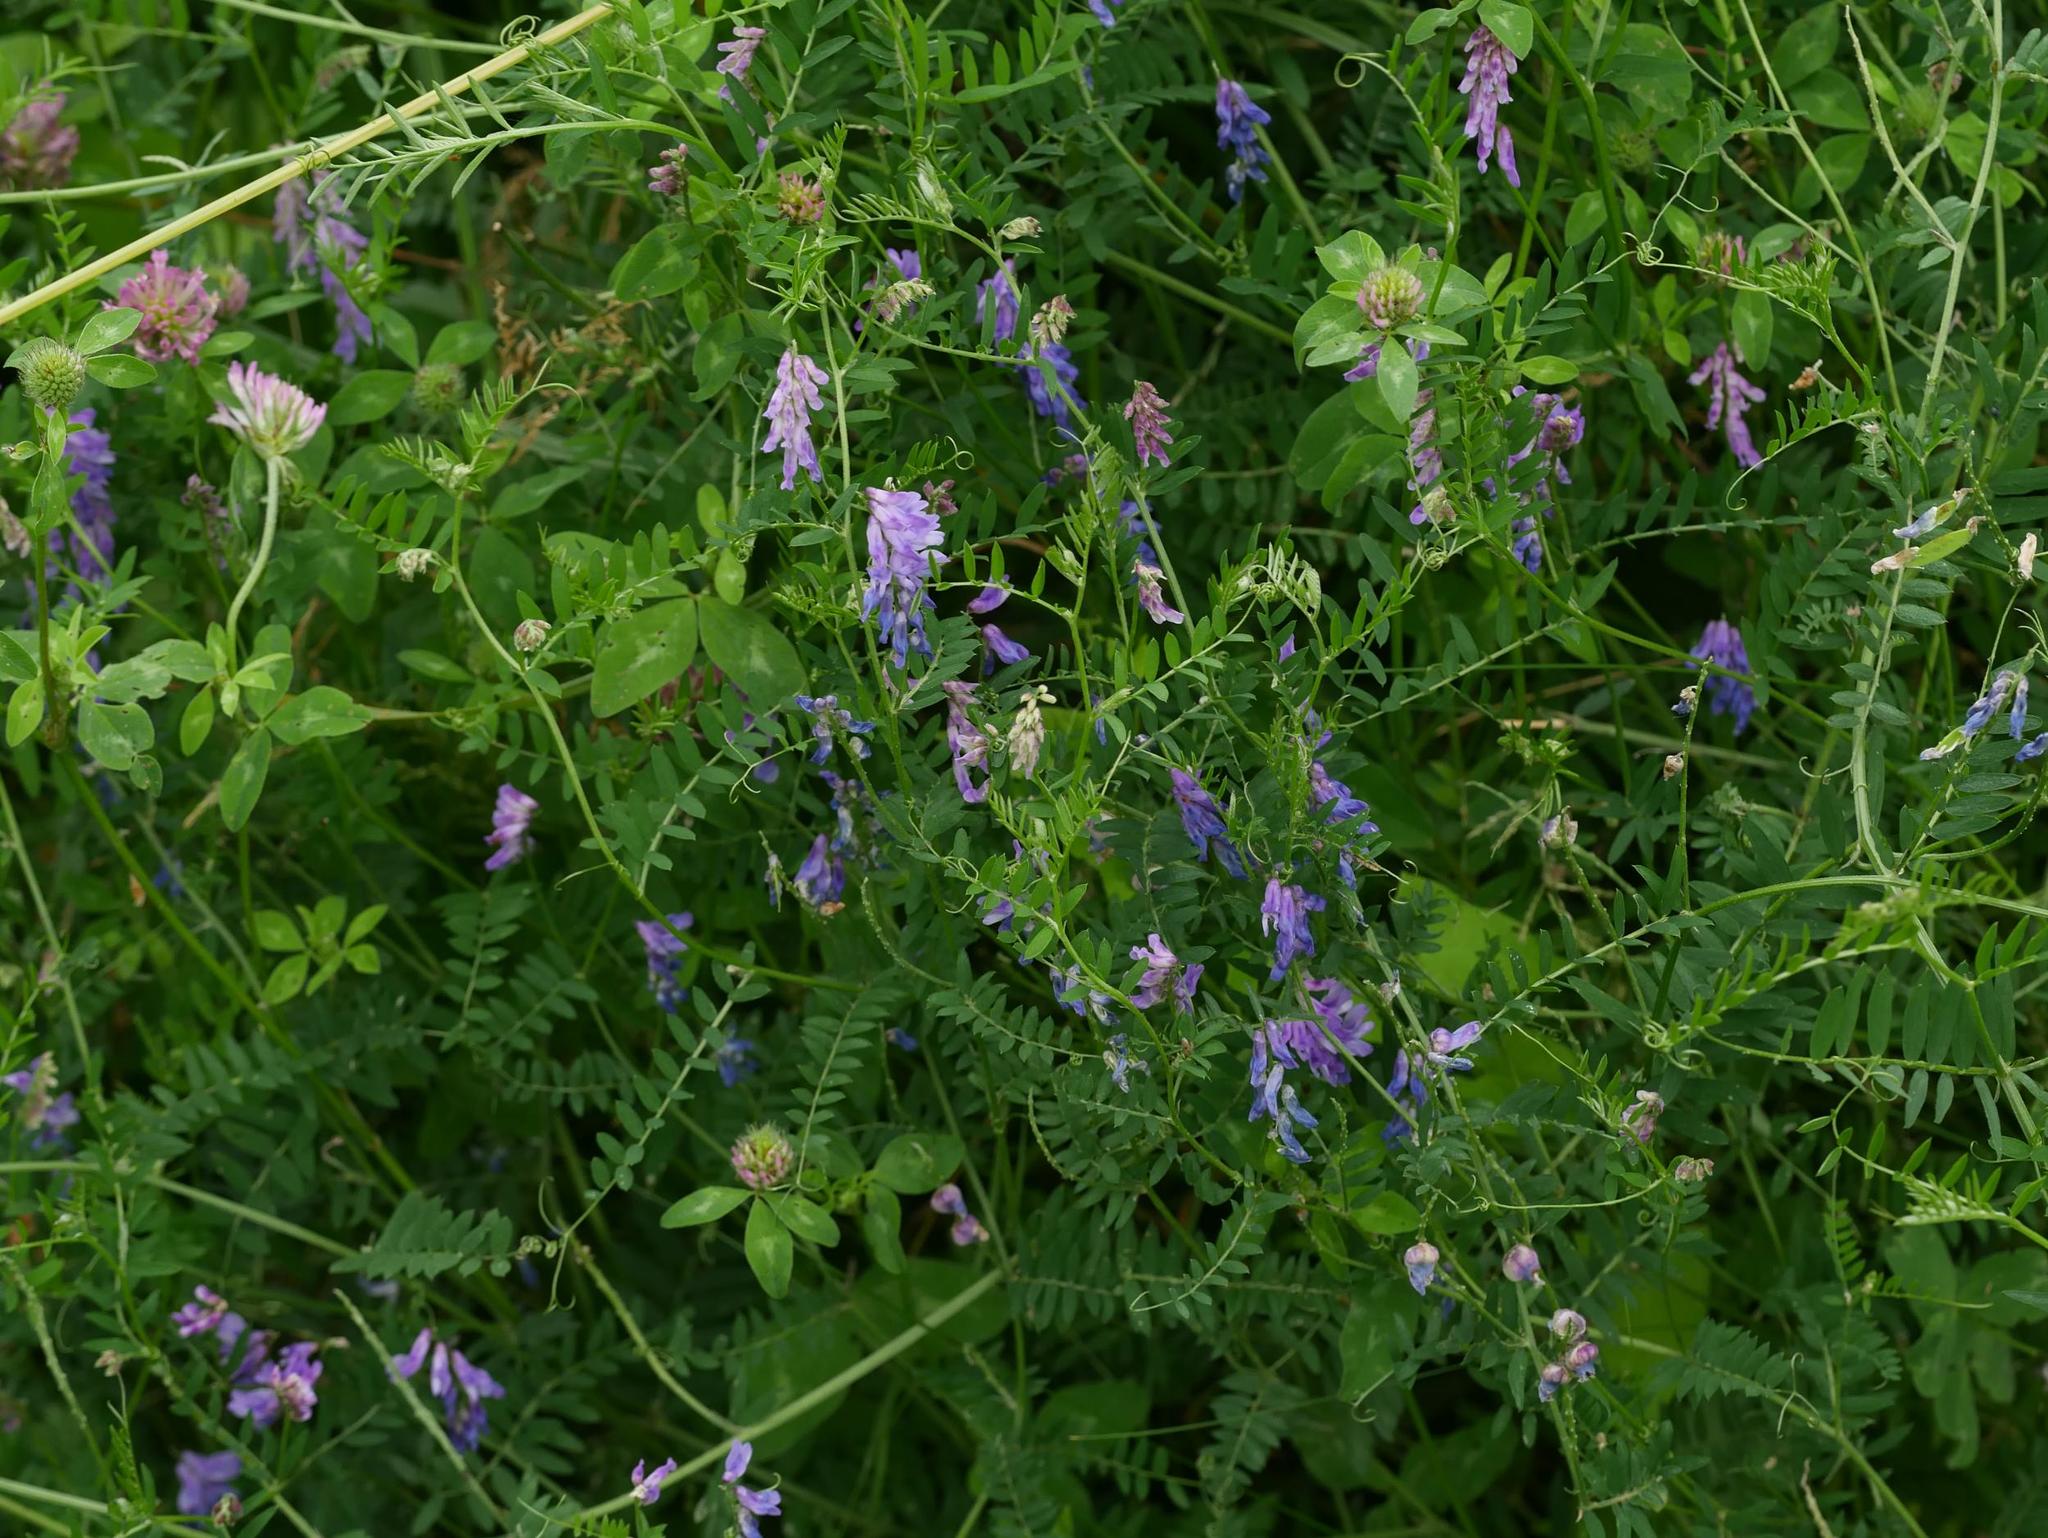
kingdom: Plantae
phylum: Tracheophyta
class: Magnoliopsida
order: Fabales
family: Fabaceae
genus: Vicia
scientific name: Vicia cracca
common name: Bird vetch
